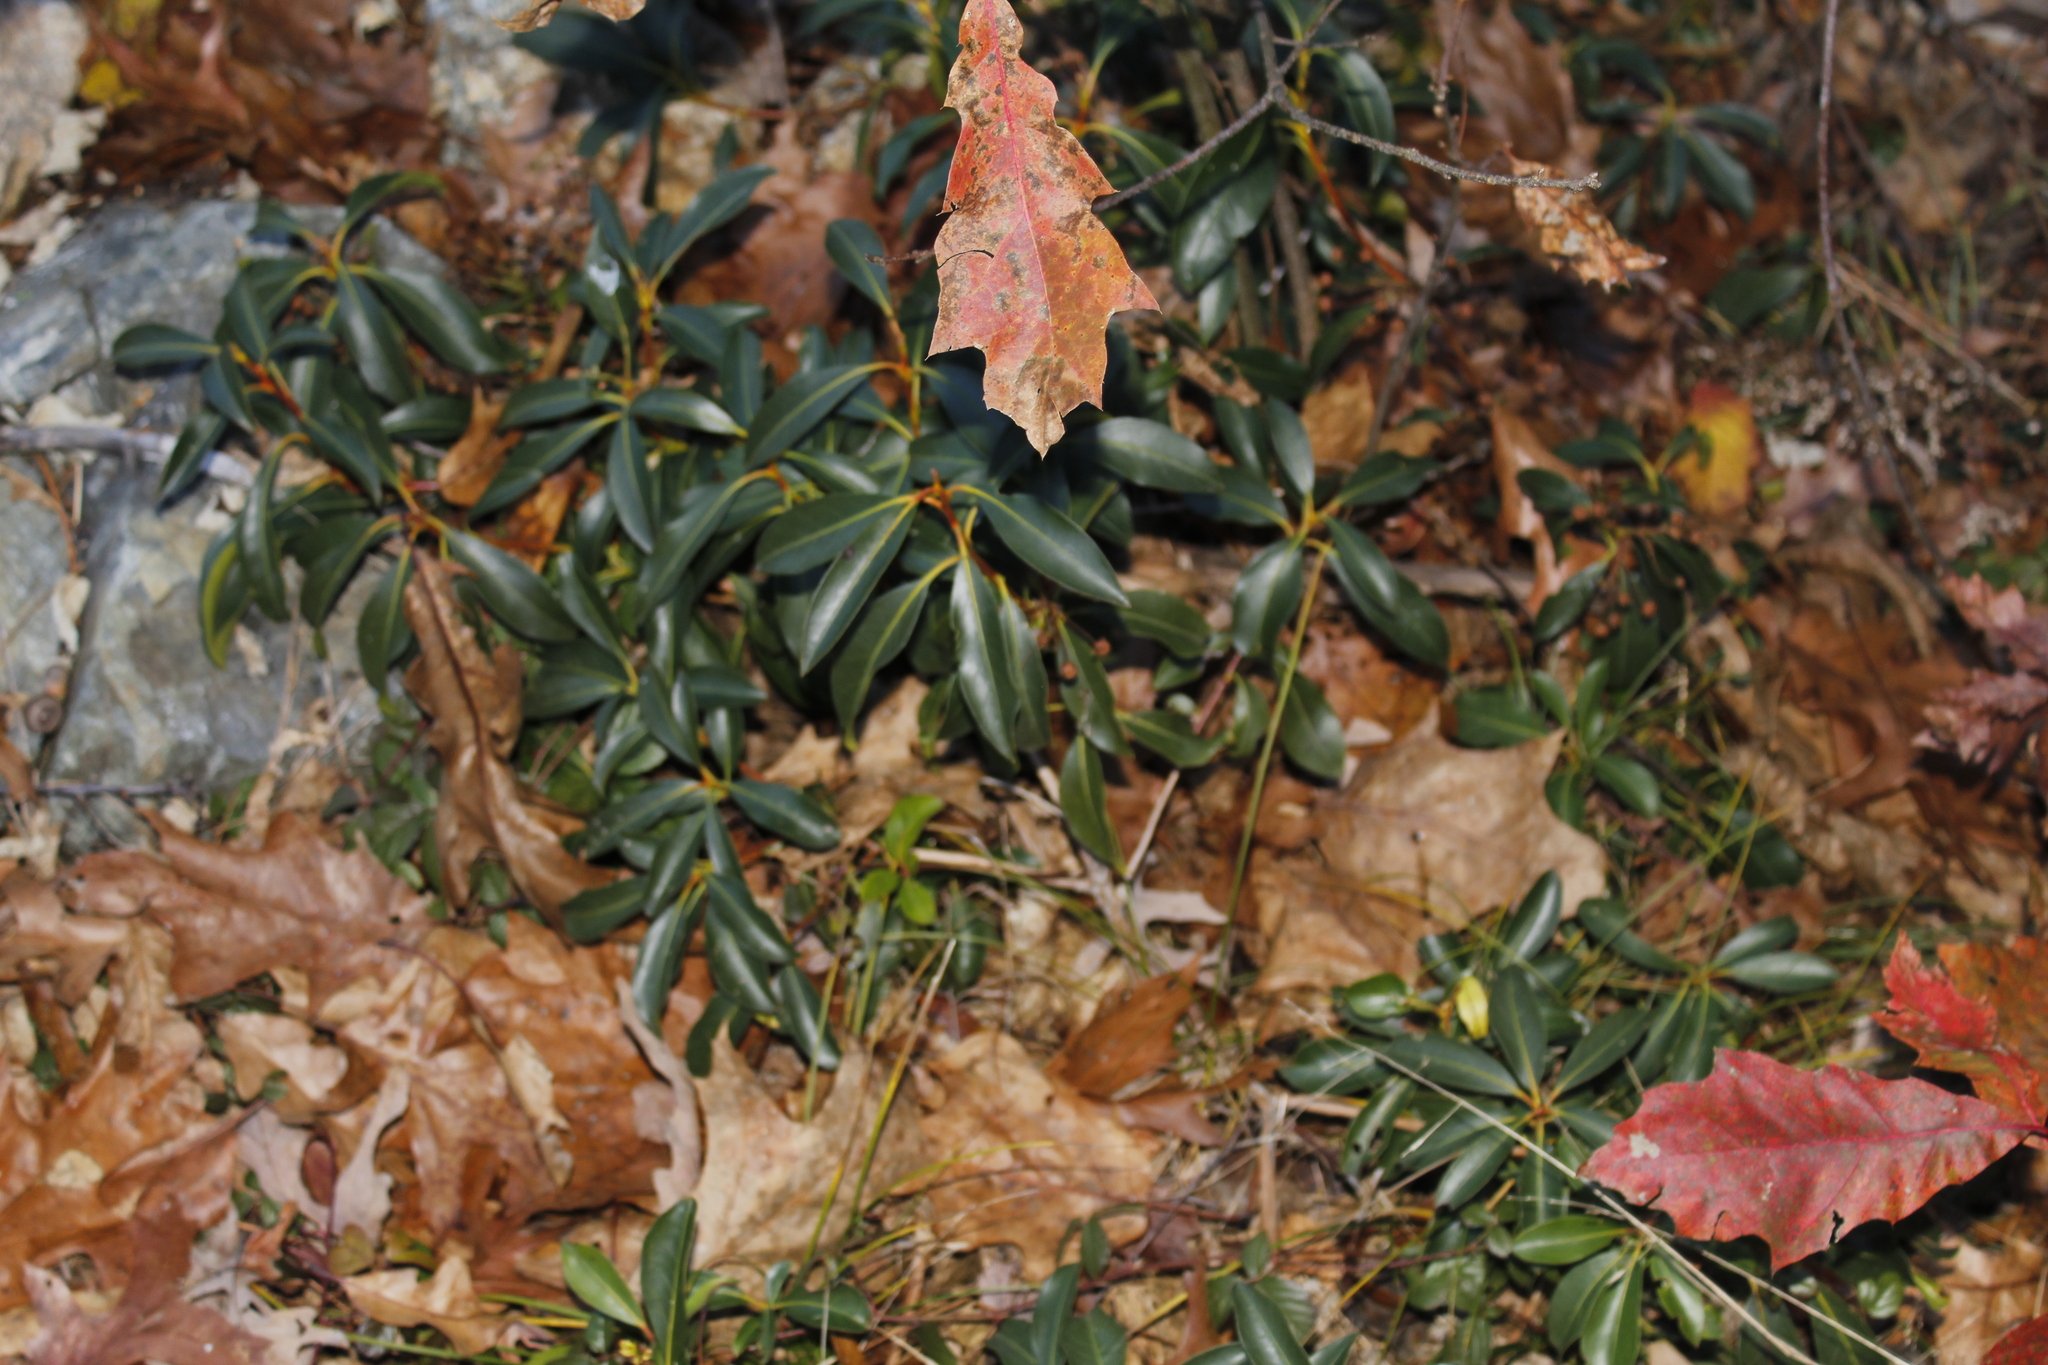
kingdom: Plantae
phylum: Tracheophyta
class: Magnoliopsida
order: Ericales
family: Ericaceae
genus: Kalmia
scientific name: Kalmia latifolia
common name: Mountain-laurel
